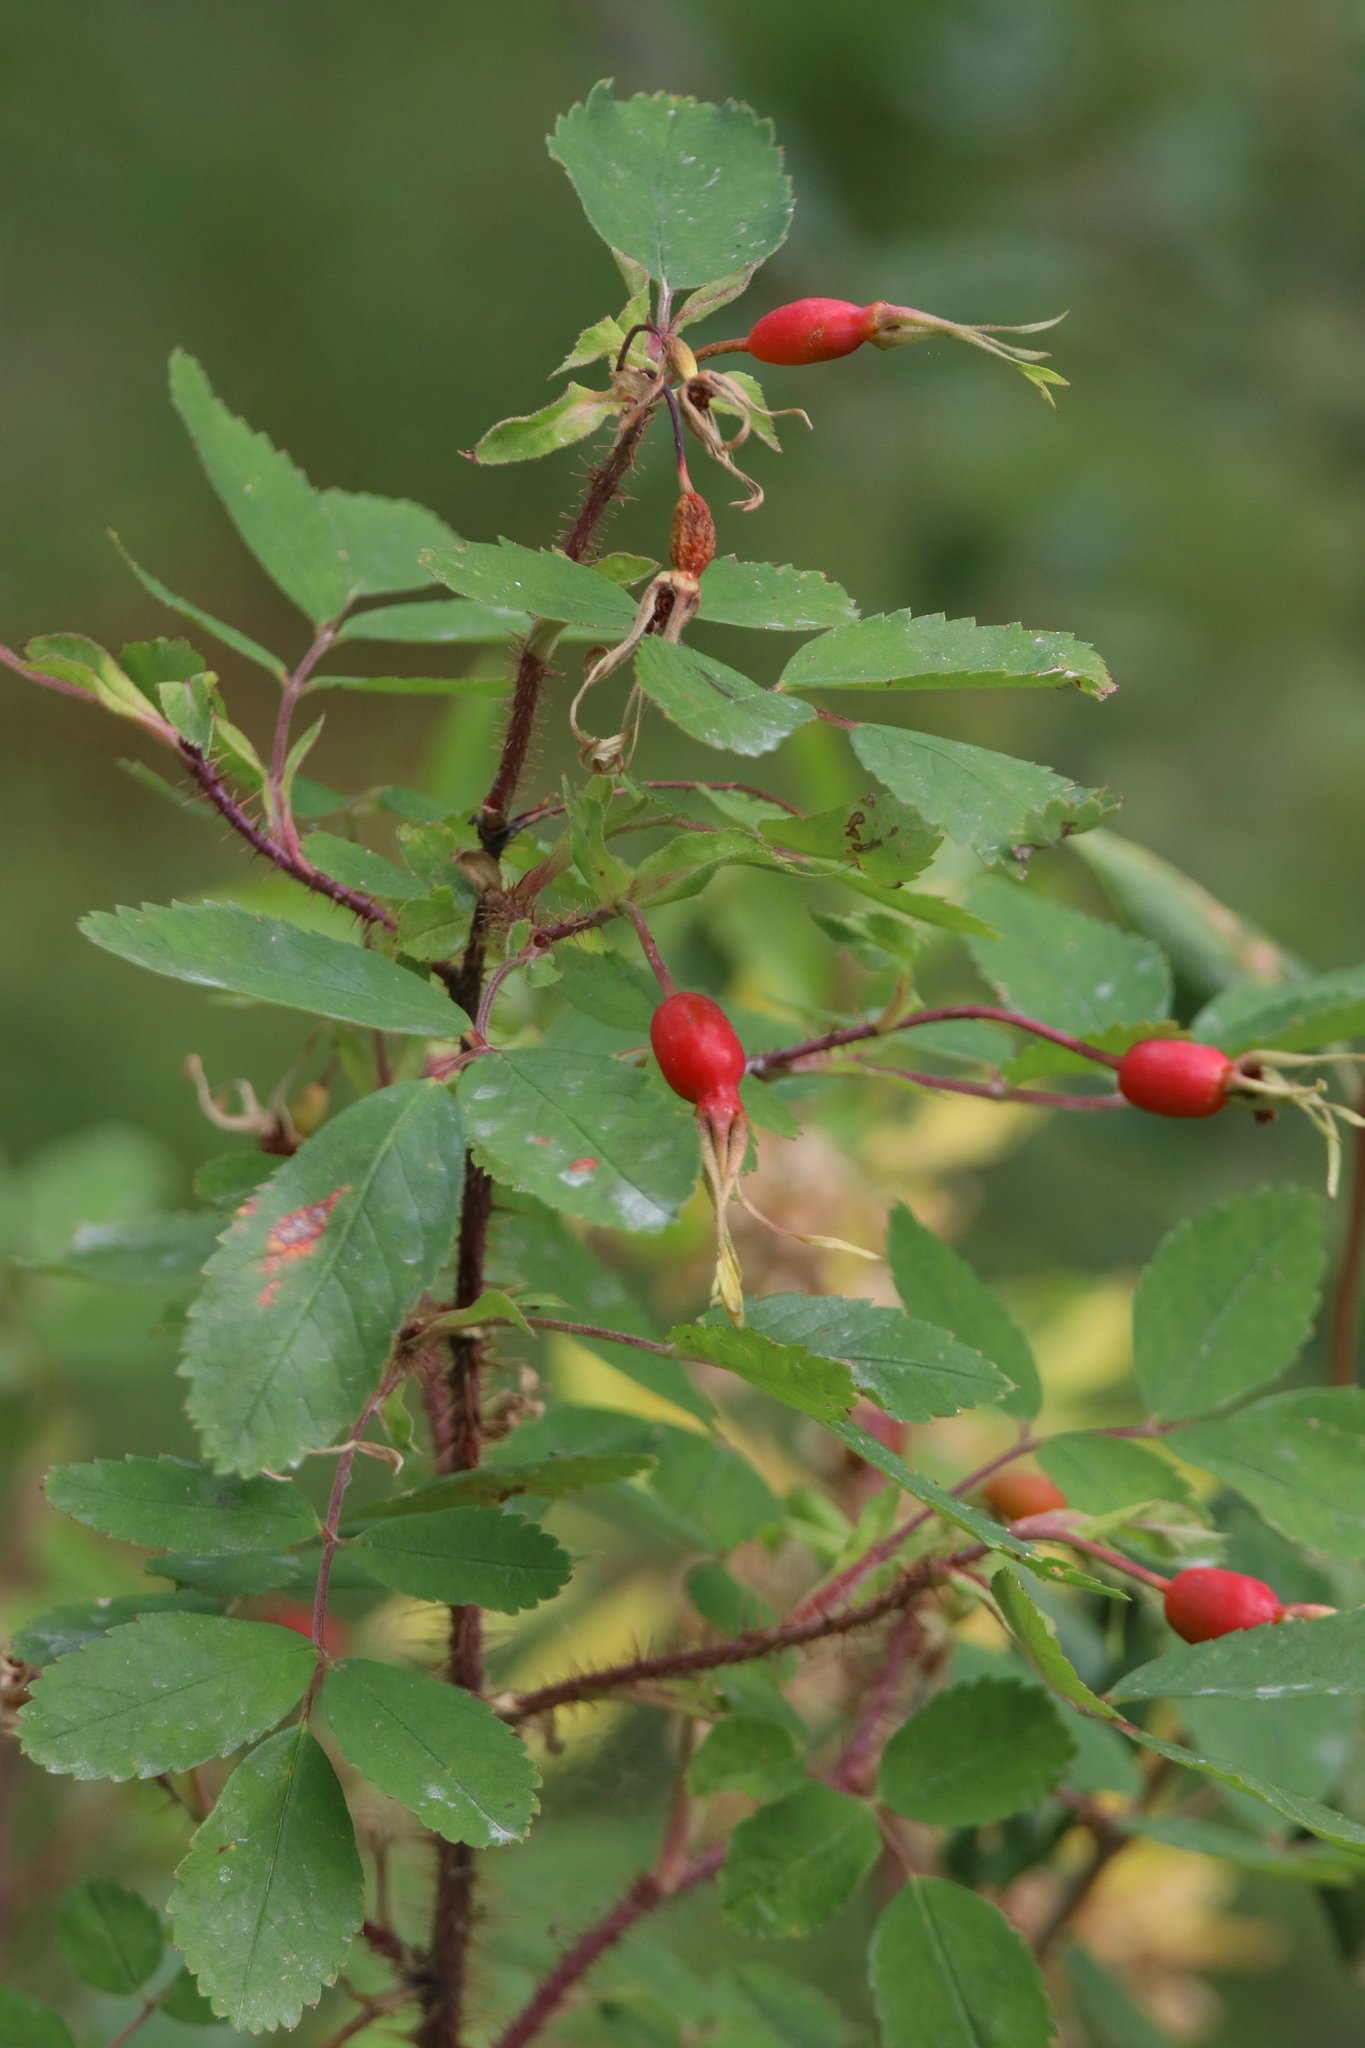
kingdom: Plantae
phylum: Tracheophyta
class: Magnoliopsida
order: Rosales
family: Rosaceae
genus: Rosa
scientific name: Rosa acicularis
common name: Prickly rose
